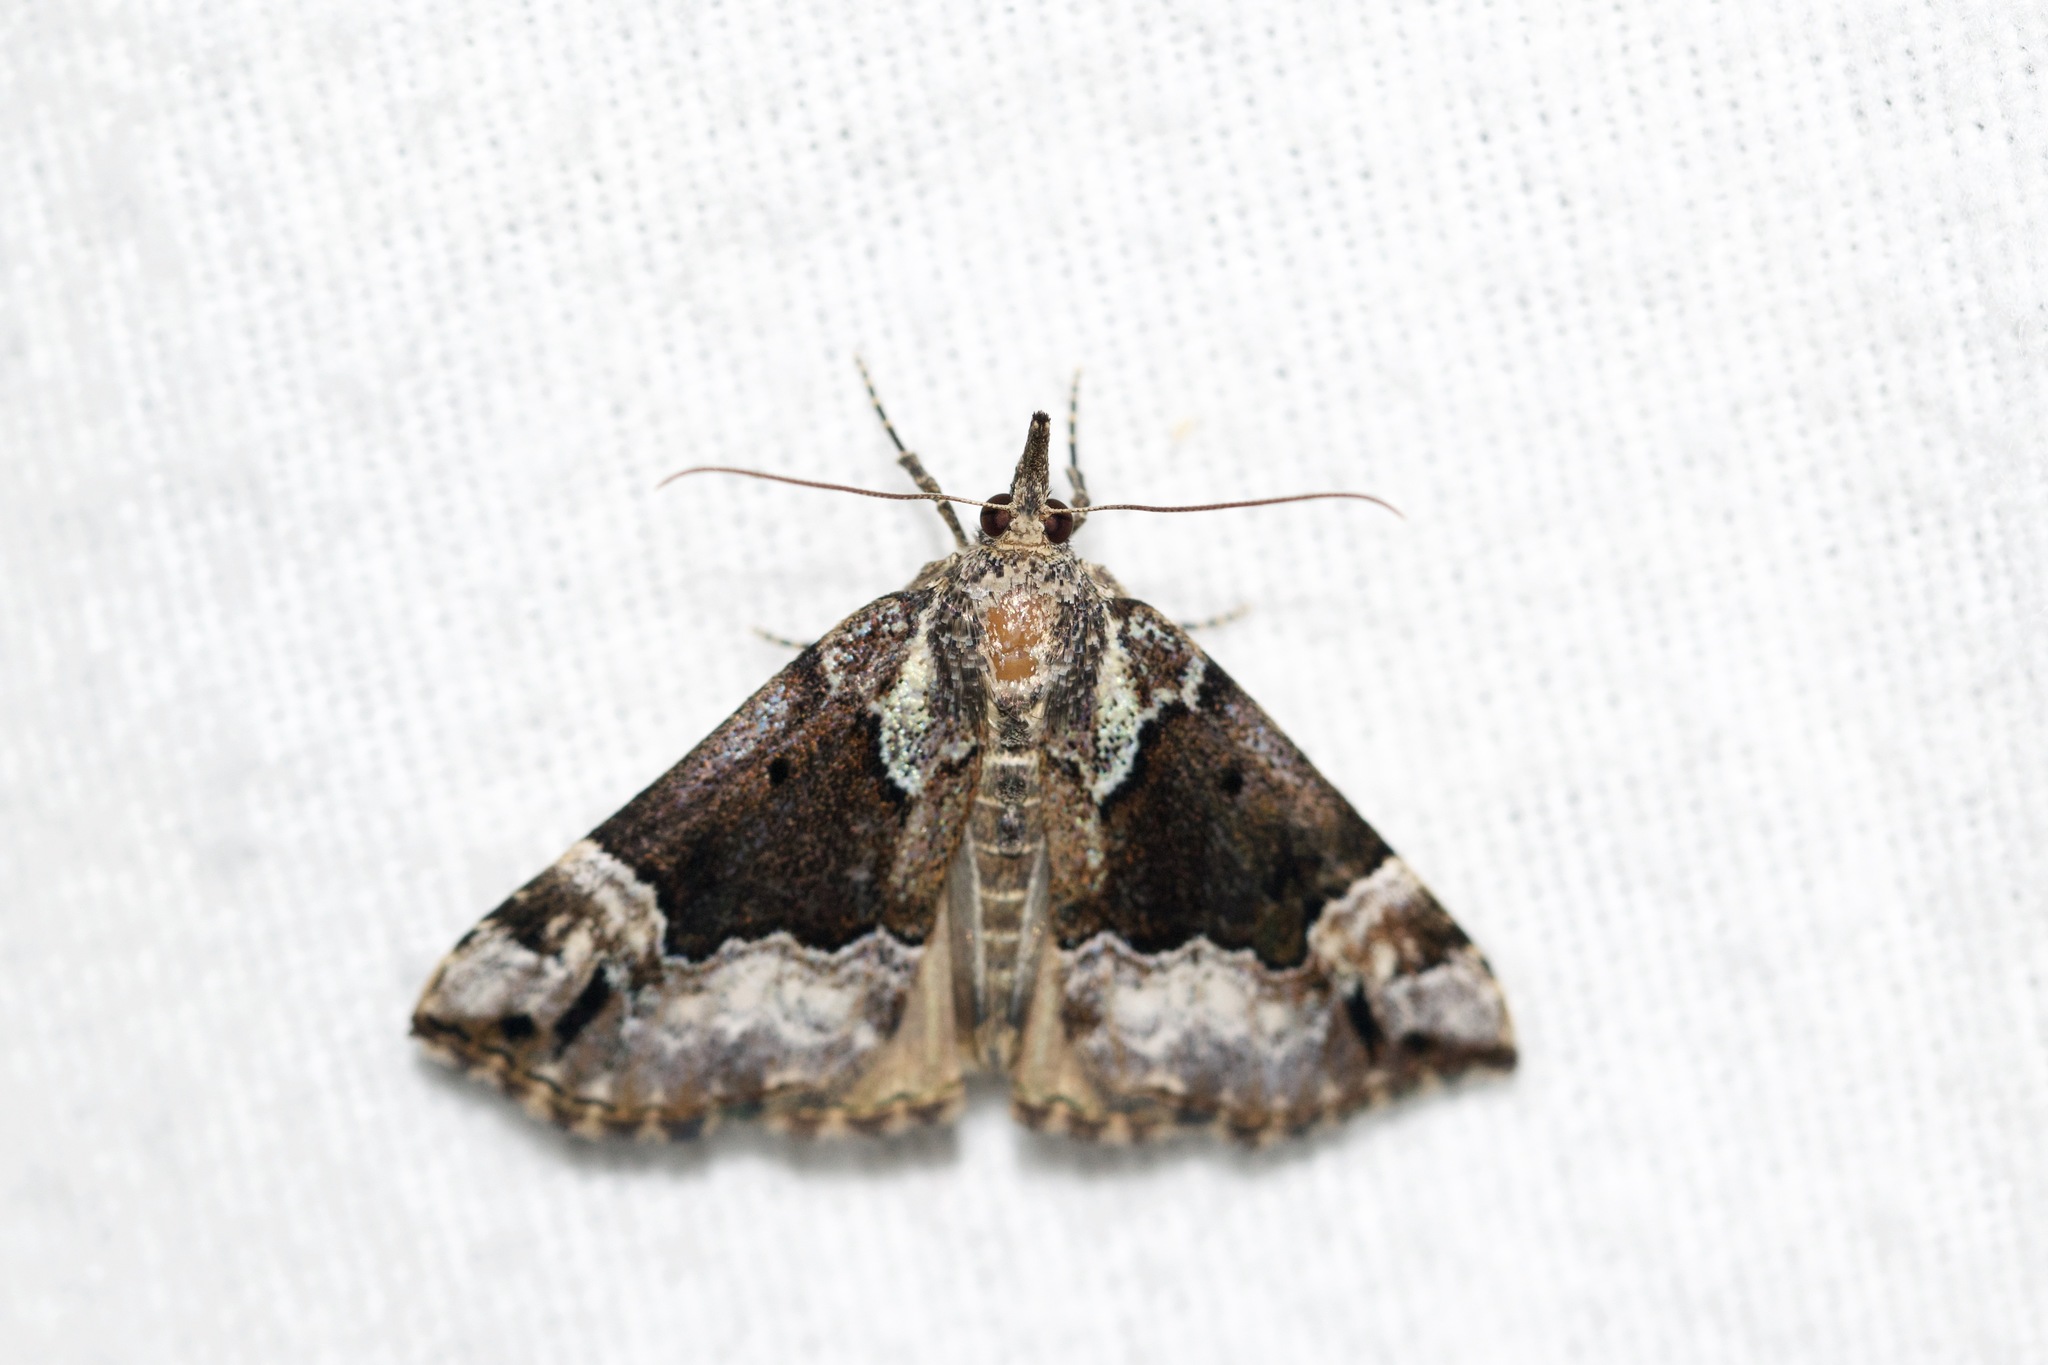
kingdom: Animalia
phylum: Arthropoda
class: Insecta
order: Lepidoptera
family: Erebidae
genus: Hypena
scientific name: Hypena palparia
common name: Mottled bomolocha moth
